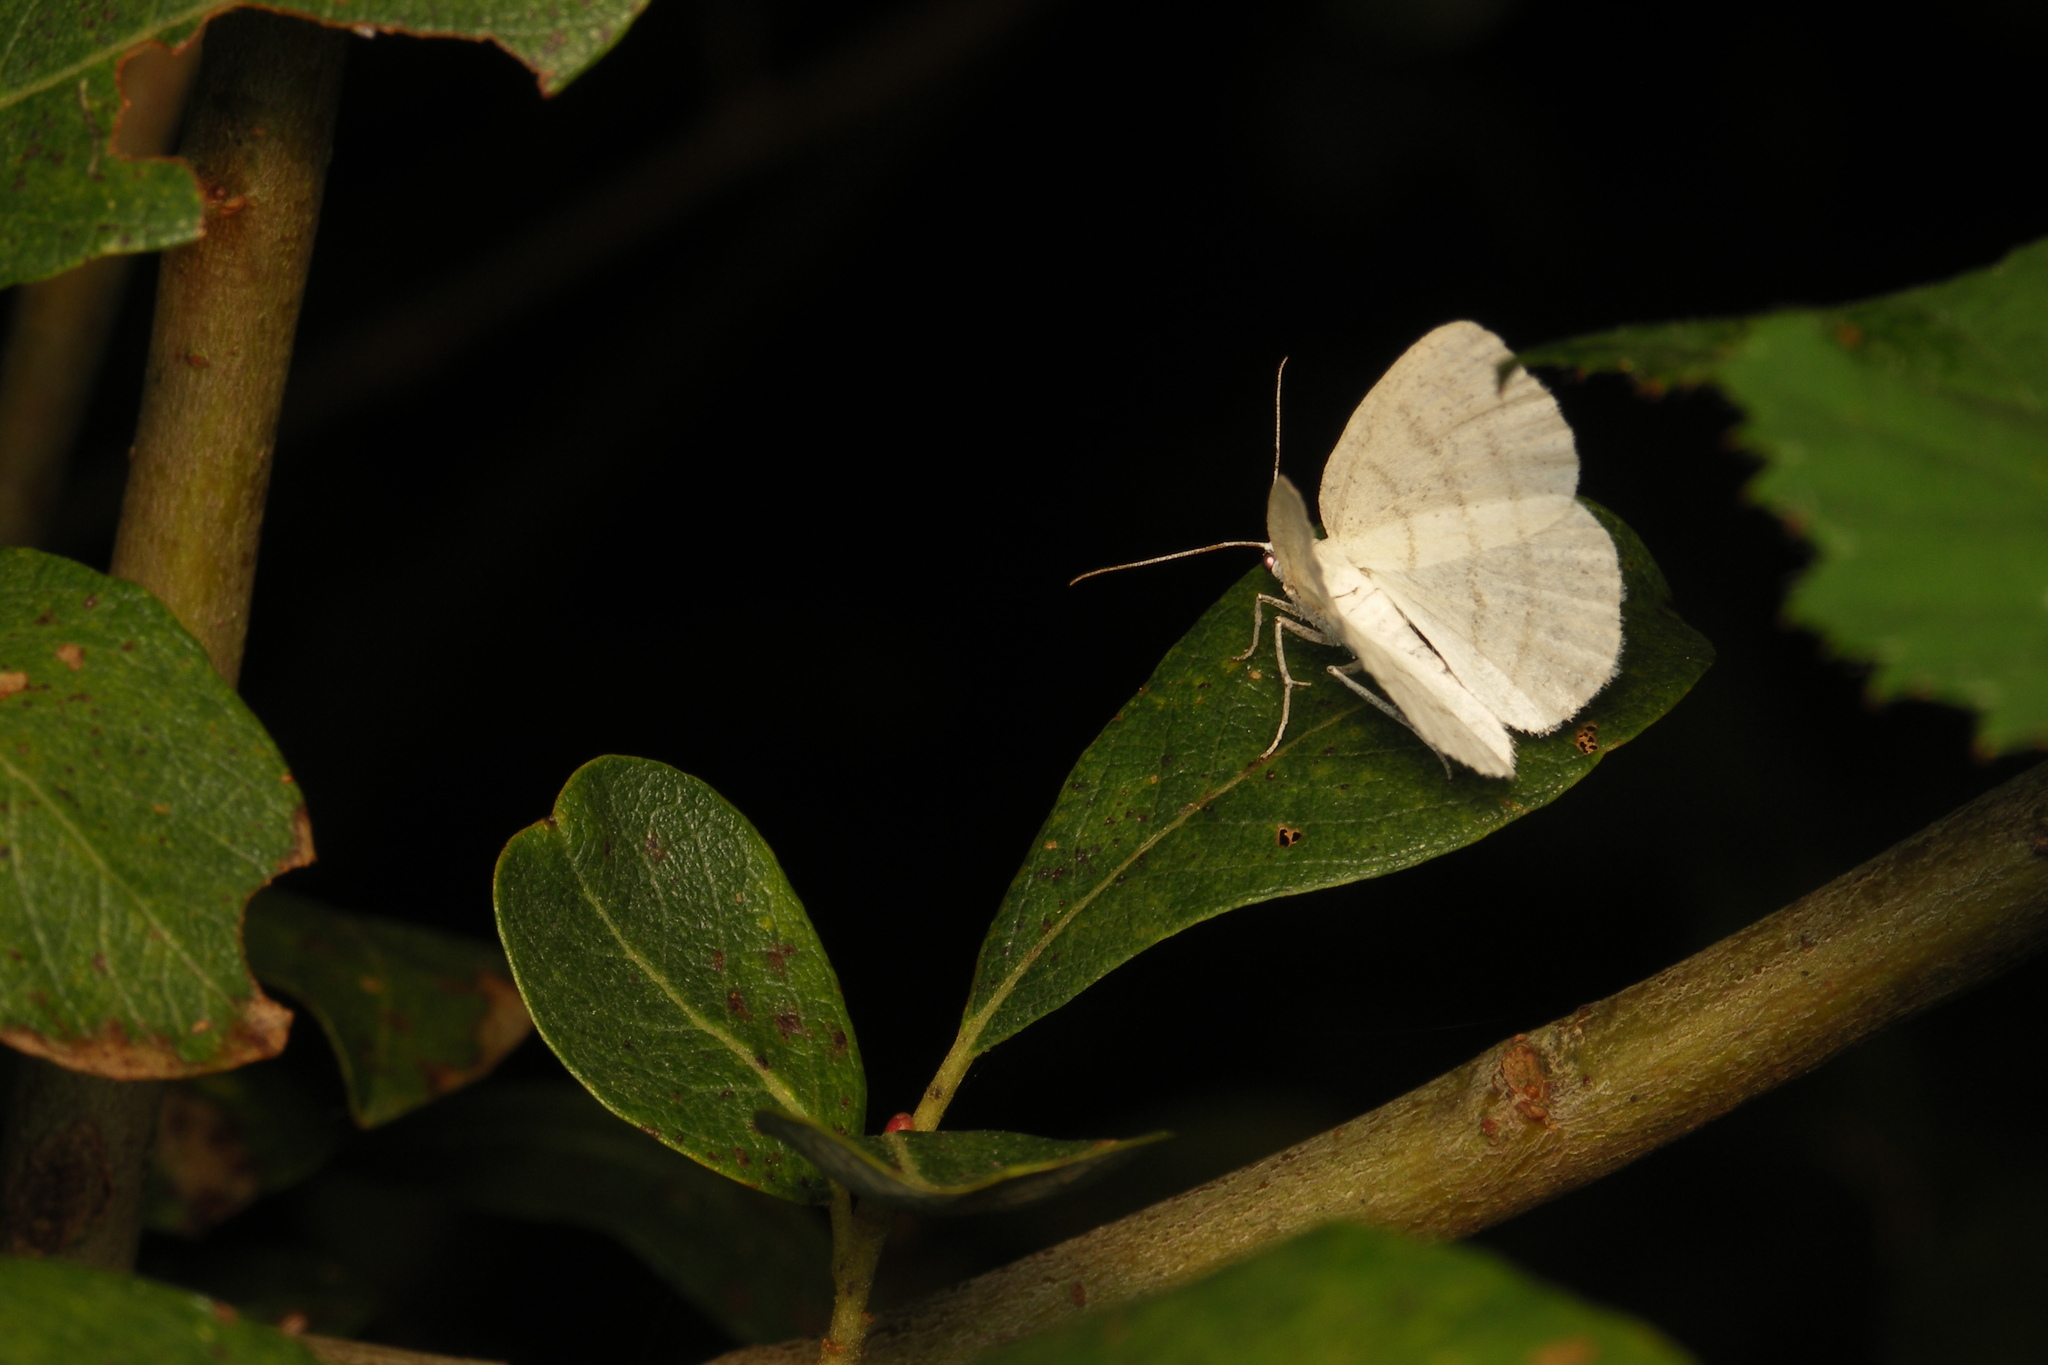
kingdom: Animalia
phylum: Arthropoda
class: Insecta
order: Lepidoptera
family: Geometridae
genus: Cabera
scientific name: Cabera pusaria
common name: Common white wave
